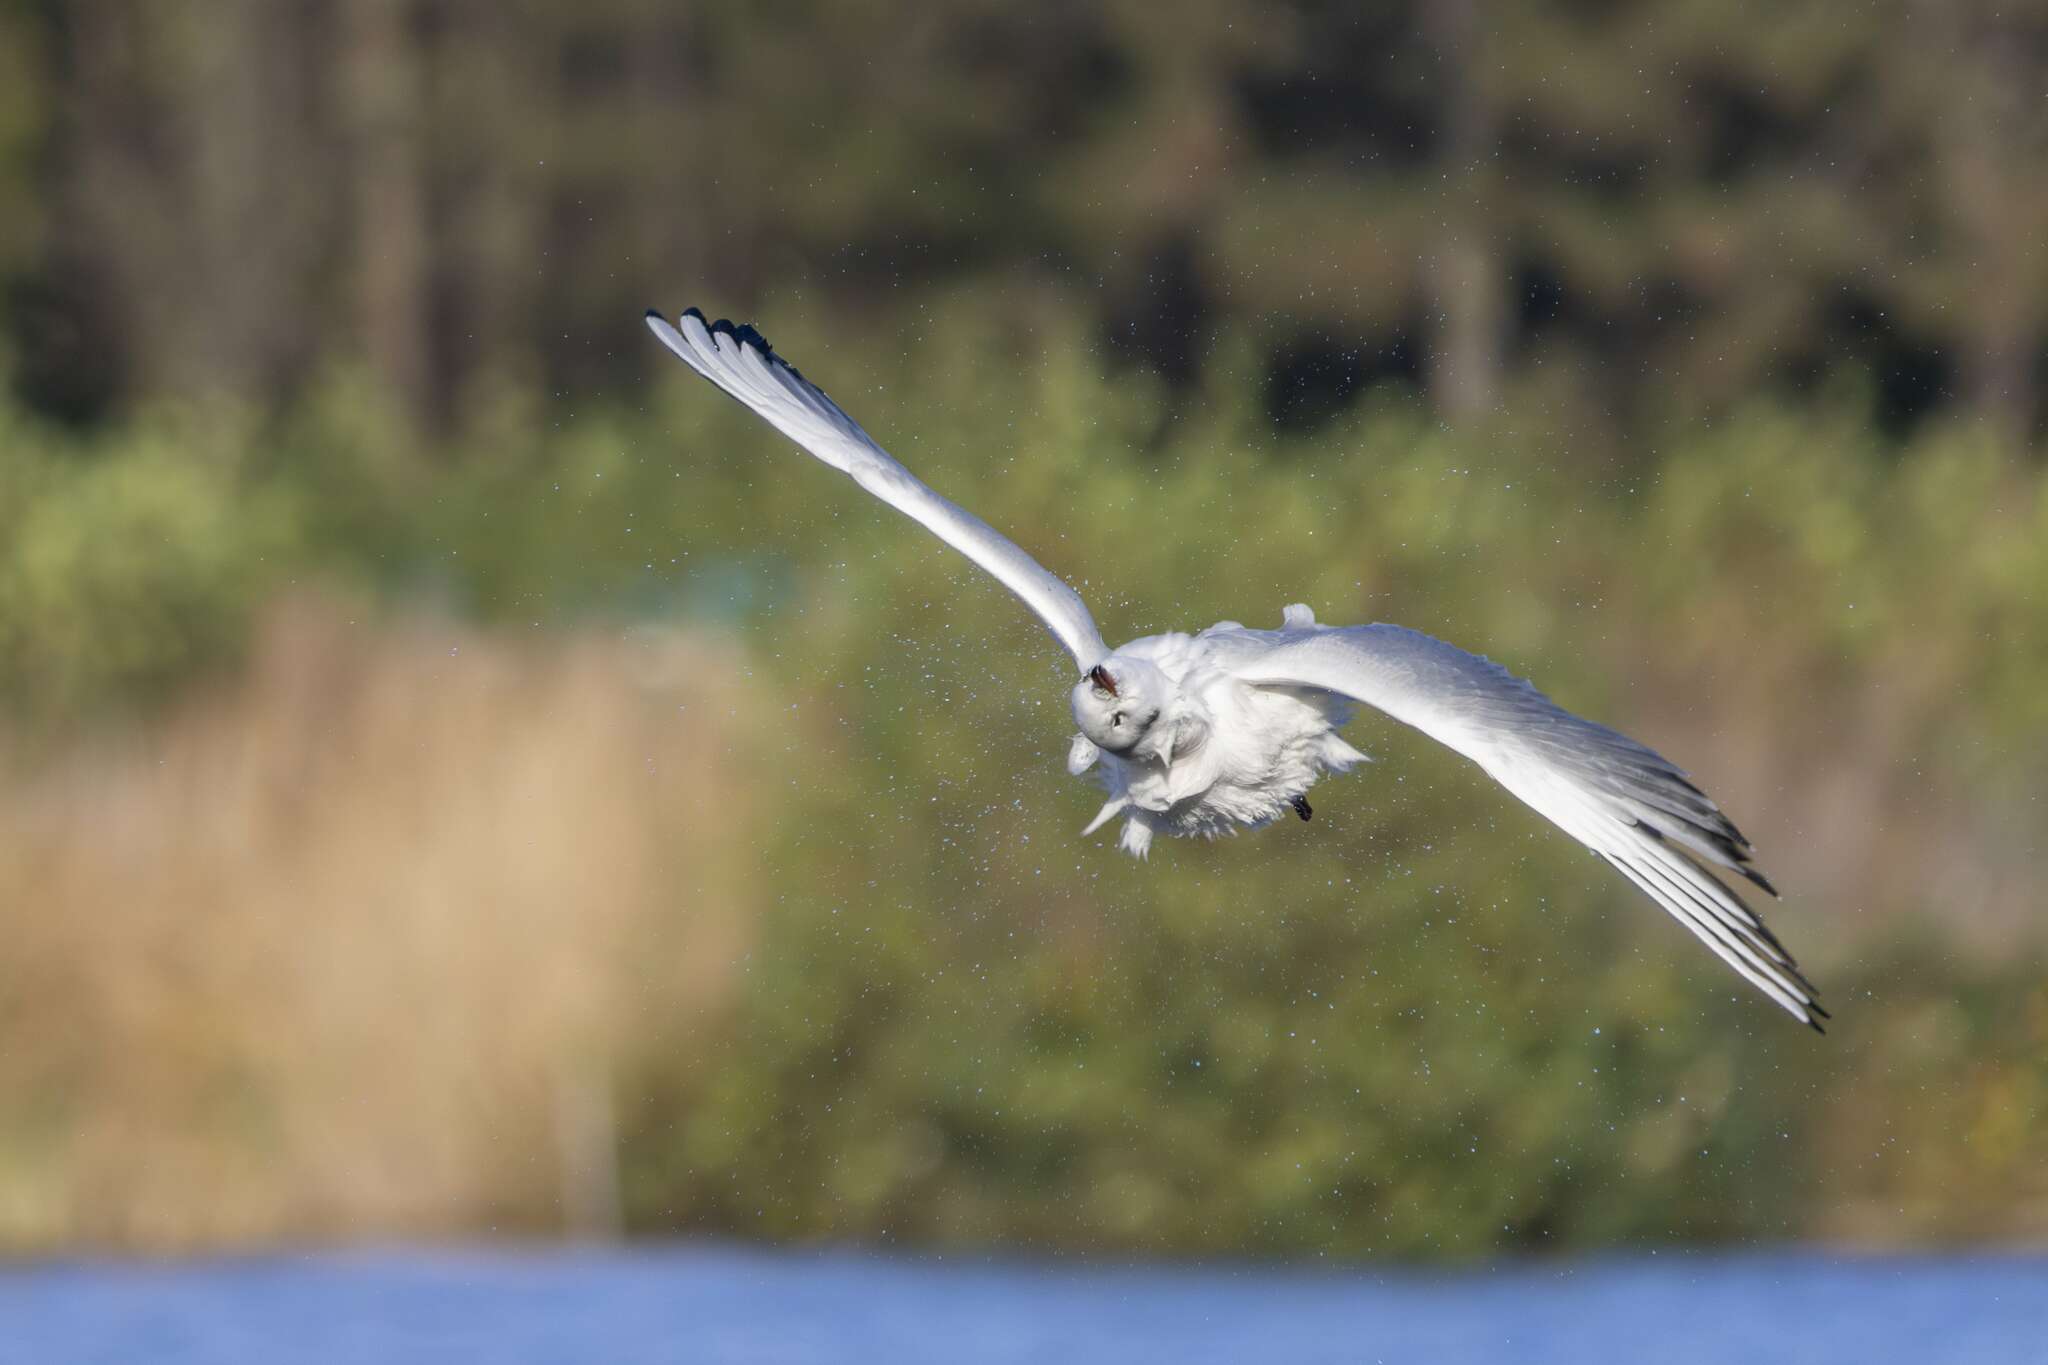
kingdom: Animalia
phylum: Chordata
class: Aves
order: Charadriiformes
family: Laridae
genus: Chroicocephalus
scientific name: Chroicocephalus ridibundus
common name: Black-headed gull
